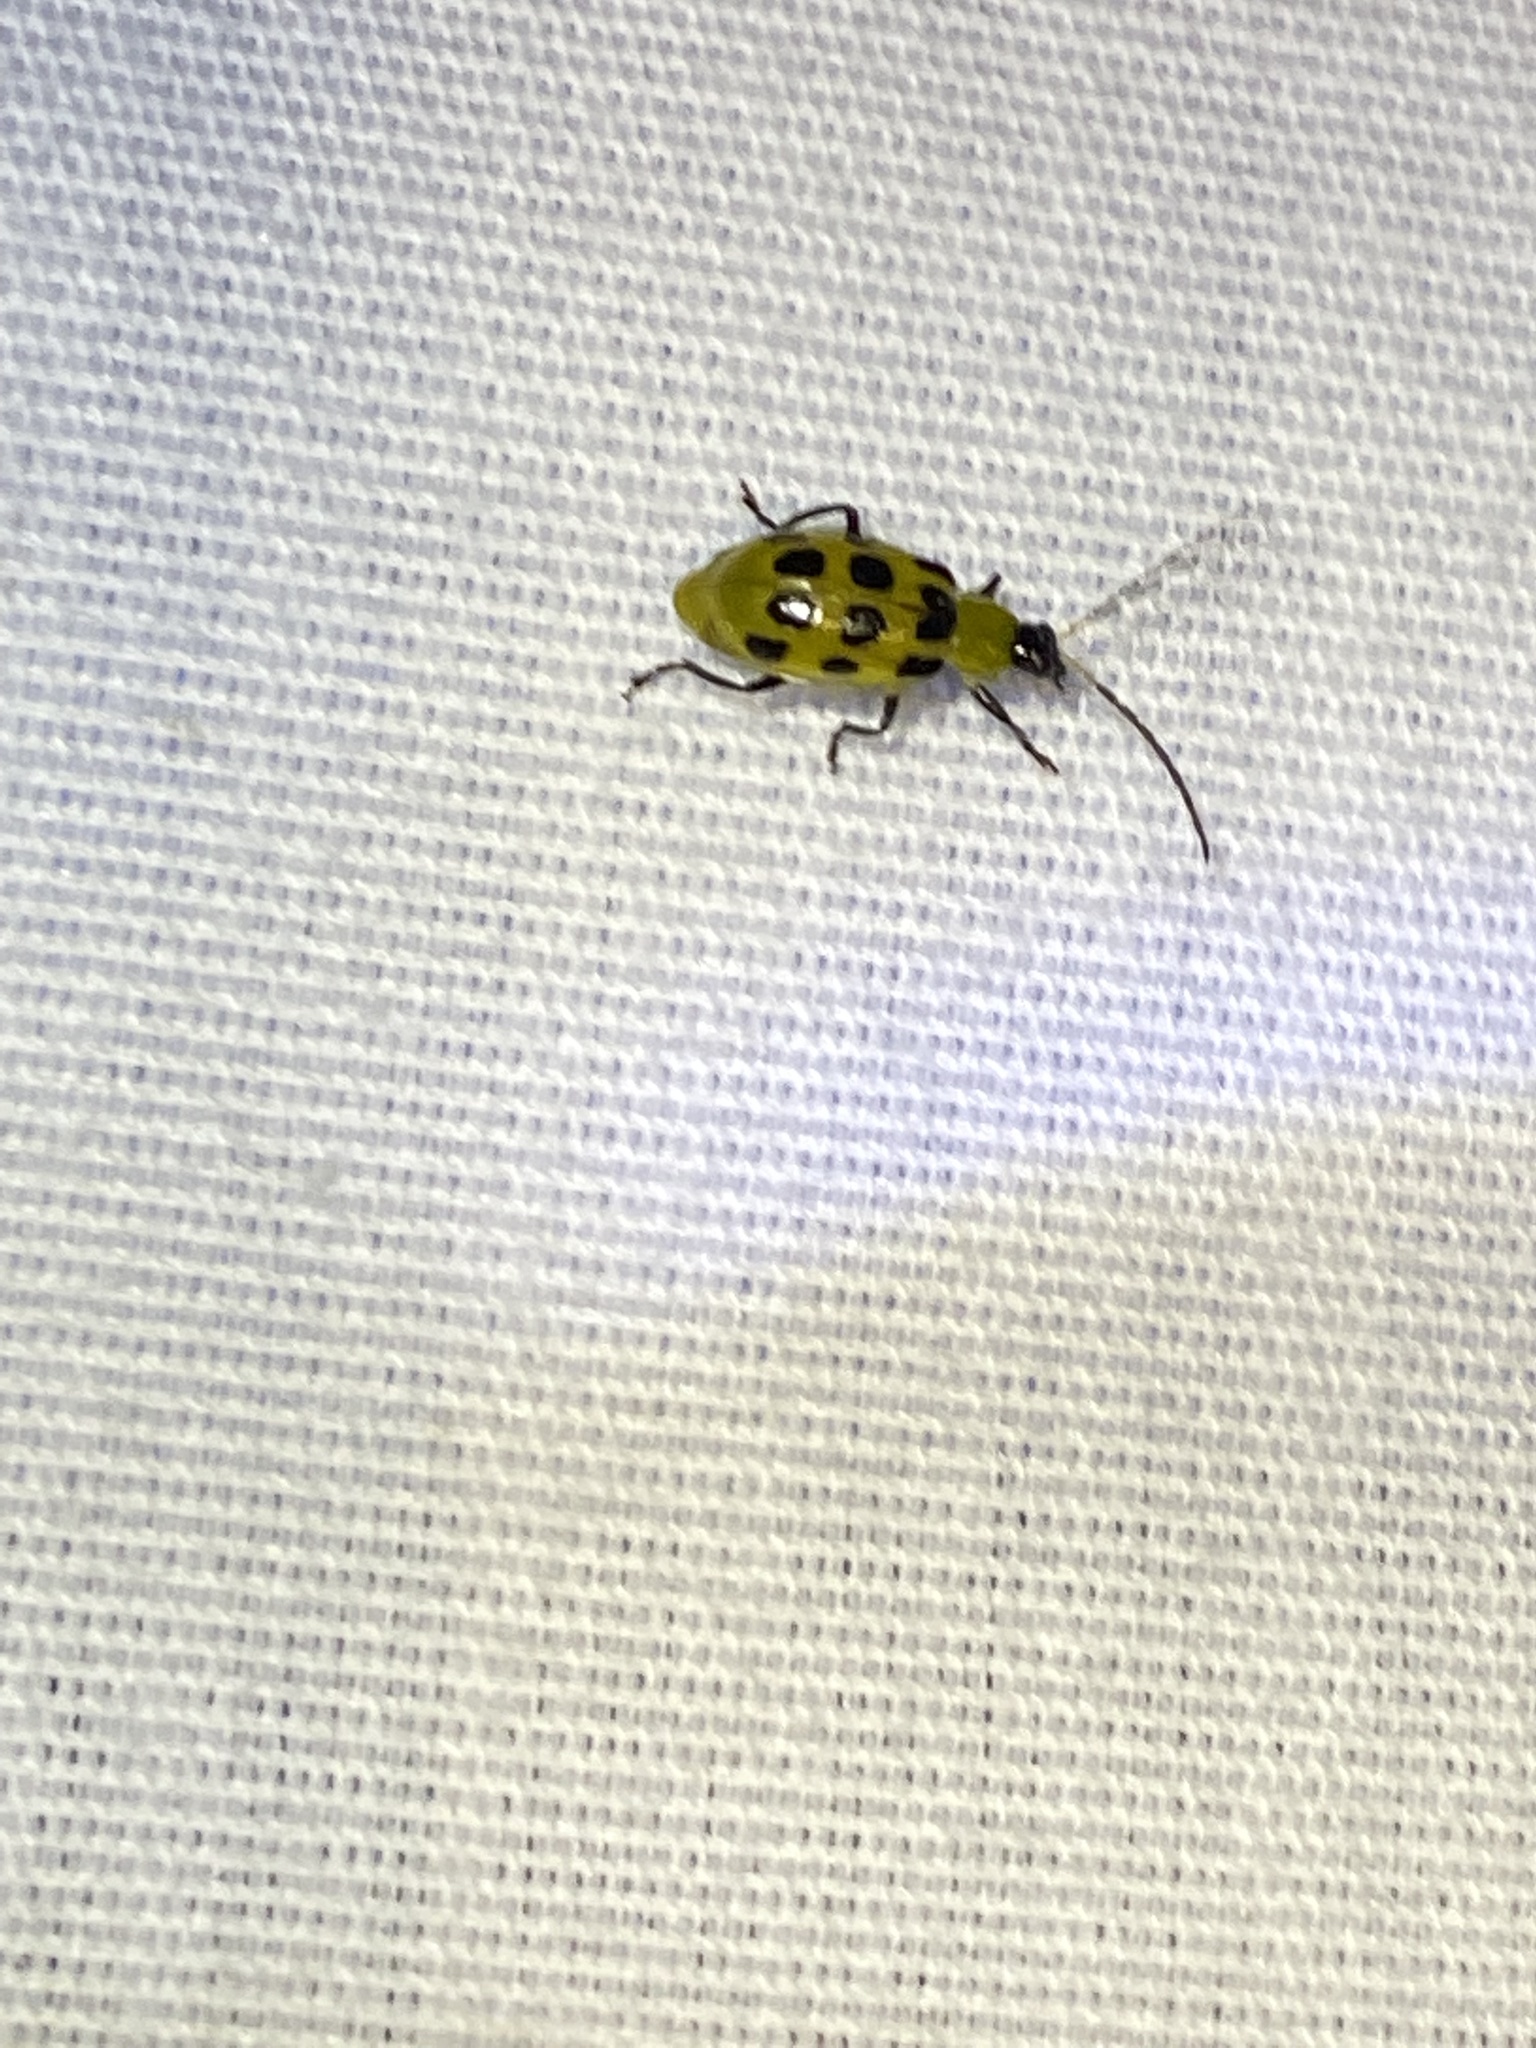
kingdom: Animalia
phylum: Arthropoda
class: Insecta
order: Coleoptera
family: Chrysomelidae
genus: Diabrotica
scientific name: Diabrotica undecimpunctata
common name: Spotted cucumber beetle
